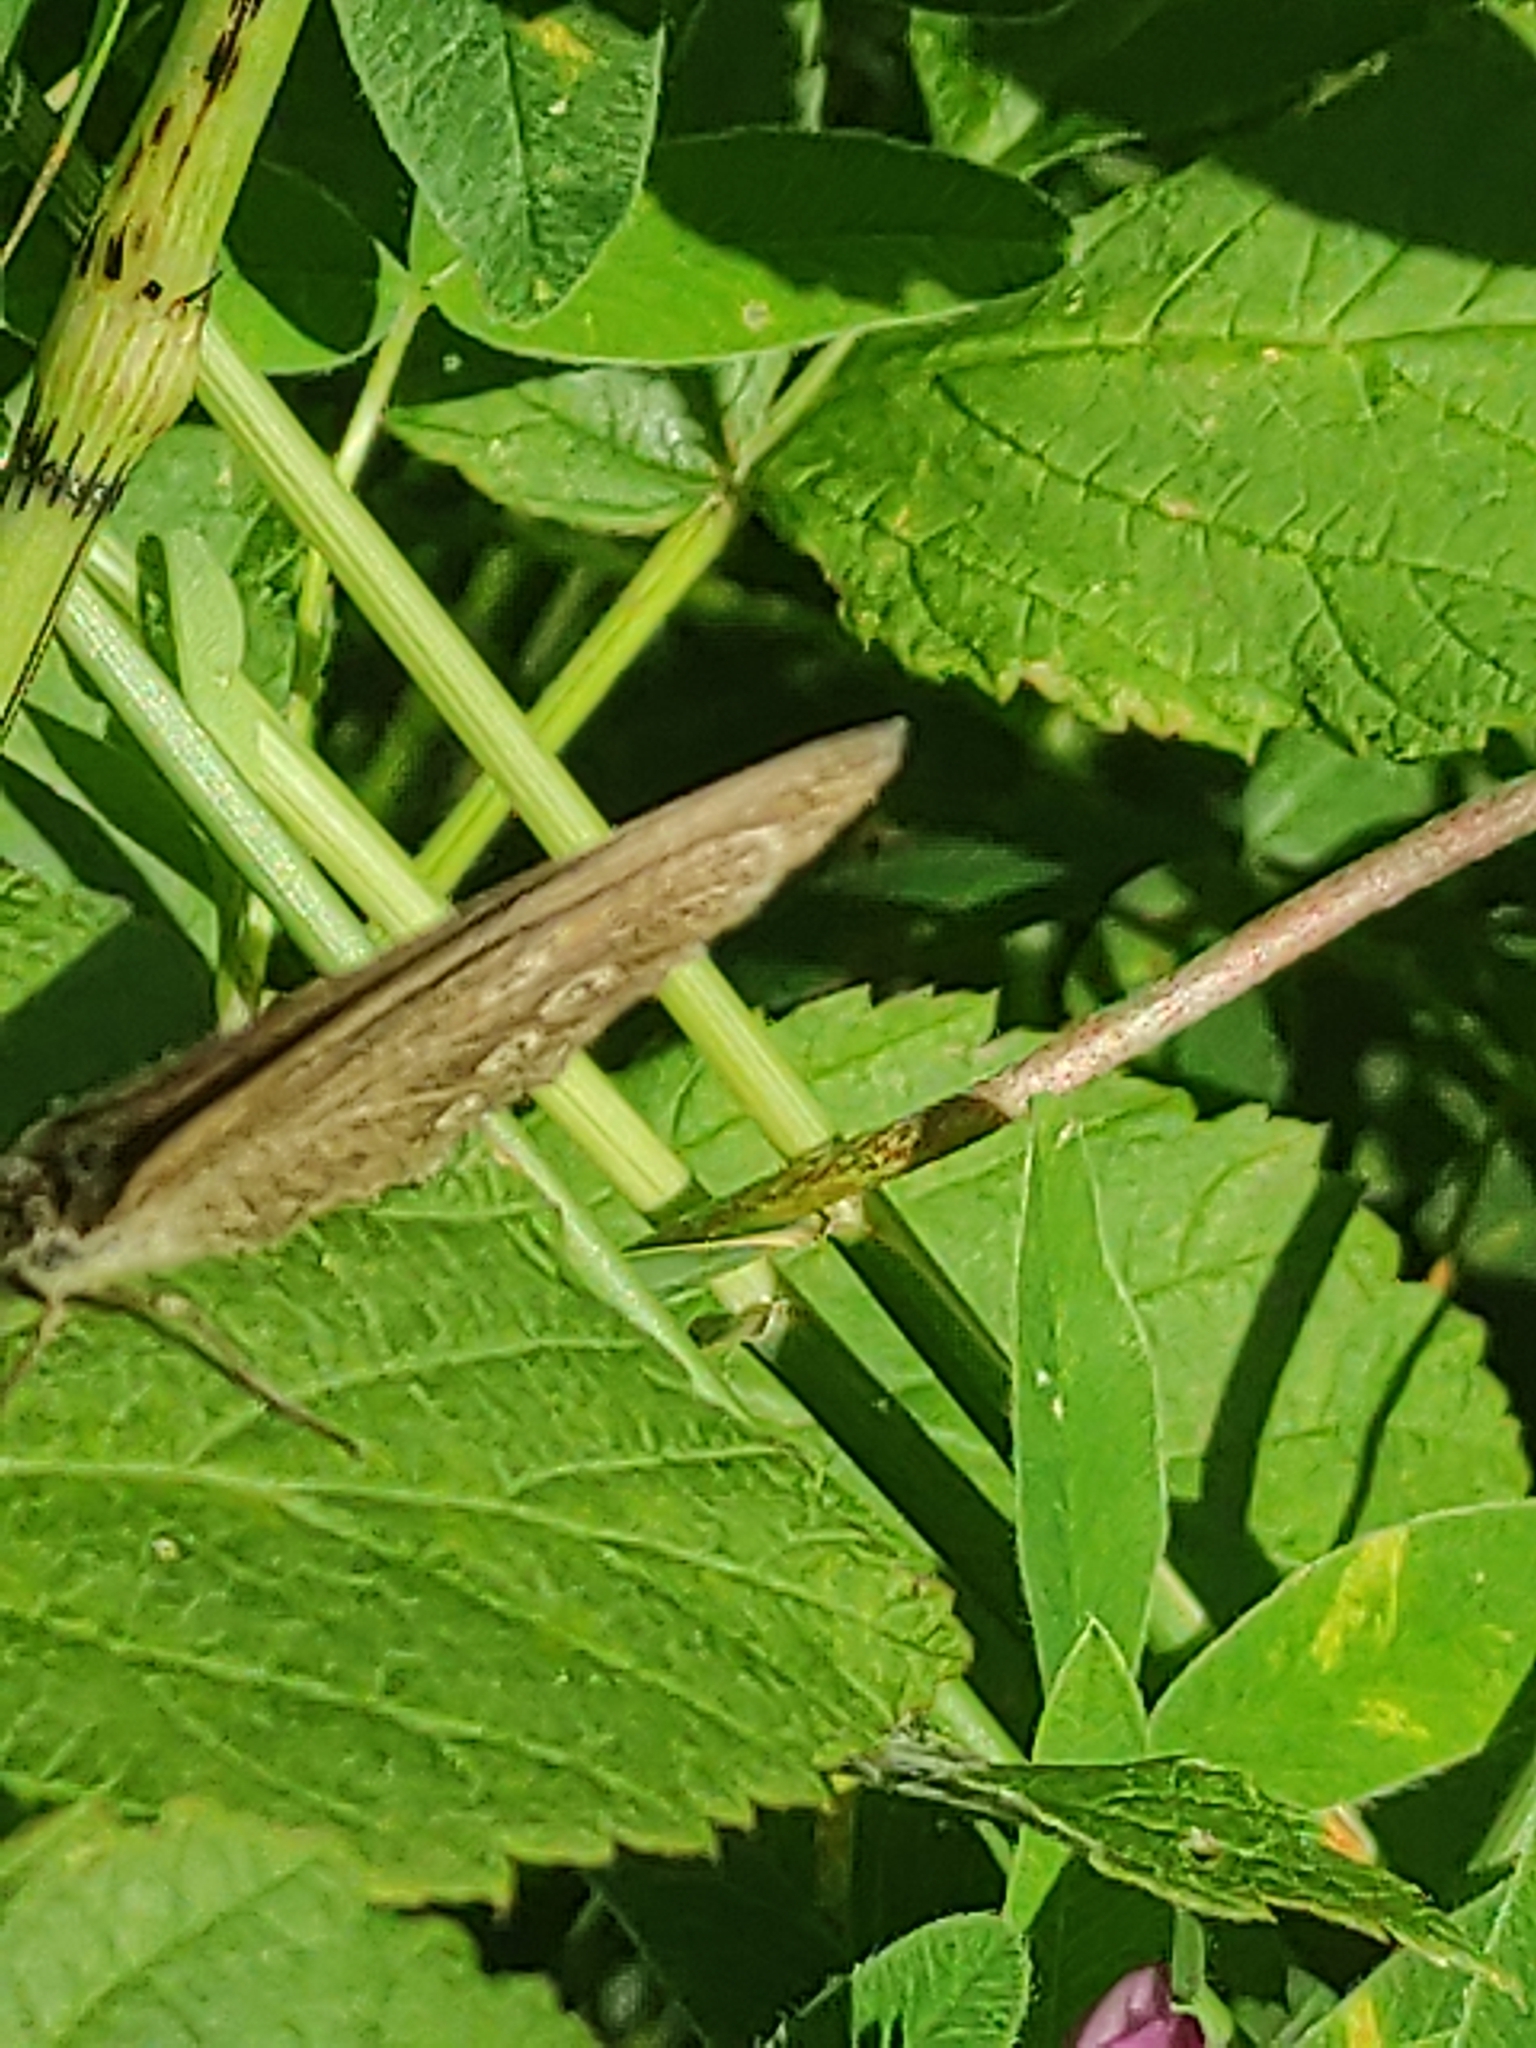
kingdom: Animalia
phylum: Arthropoda
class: Insecta
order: Lepidoptera
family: Nymphalidae
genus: Aphantopus
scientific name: Aphantopus hyperantus
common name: Ringlet
